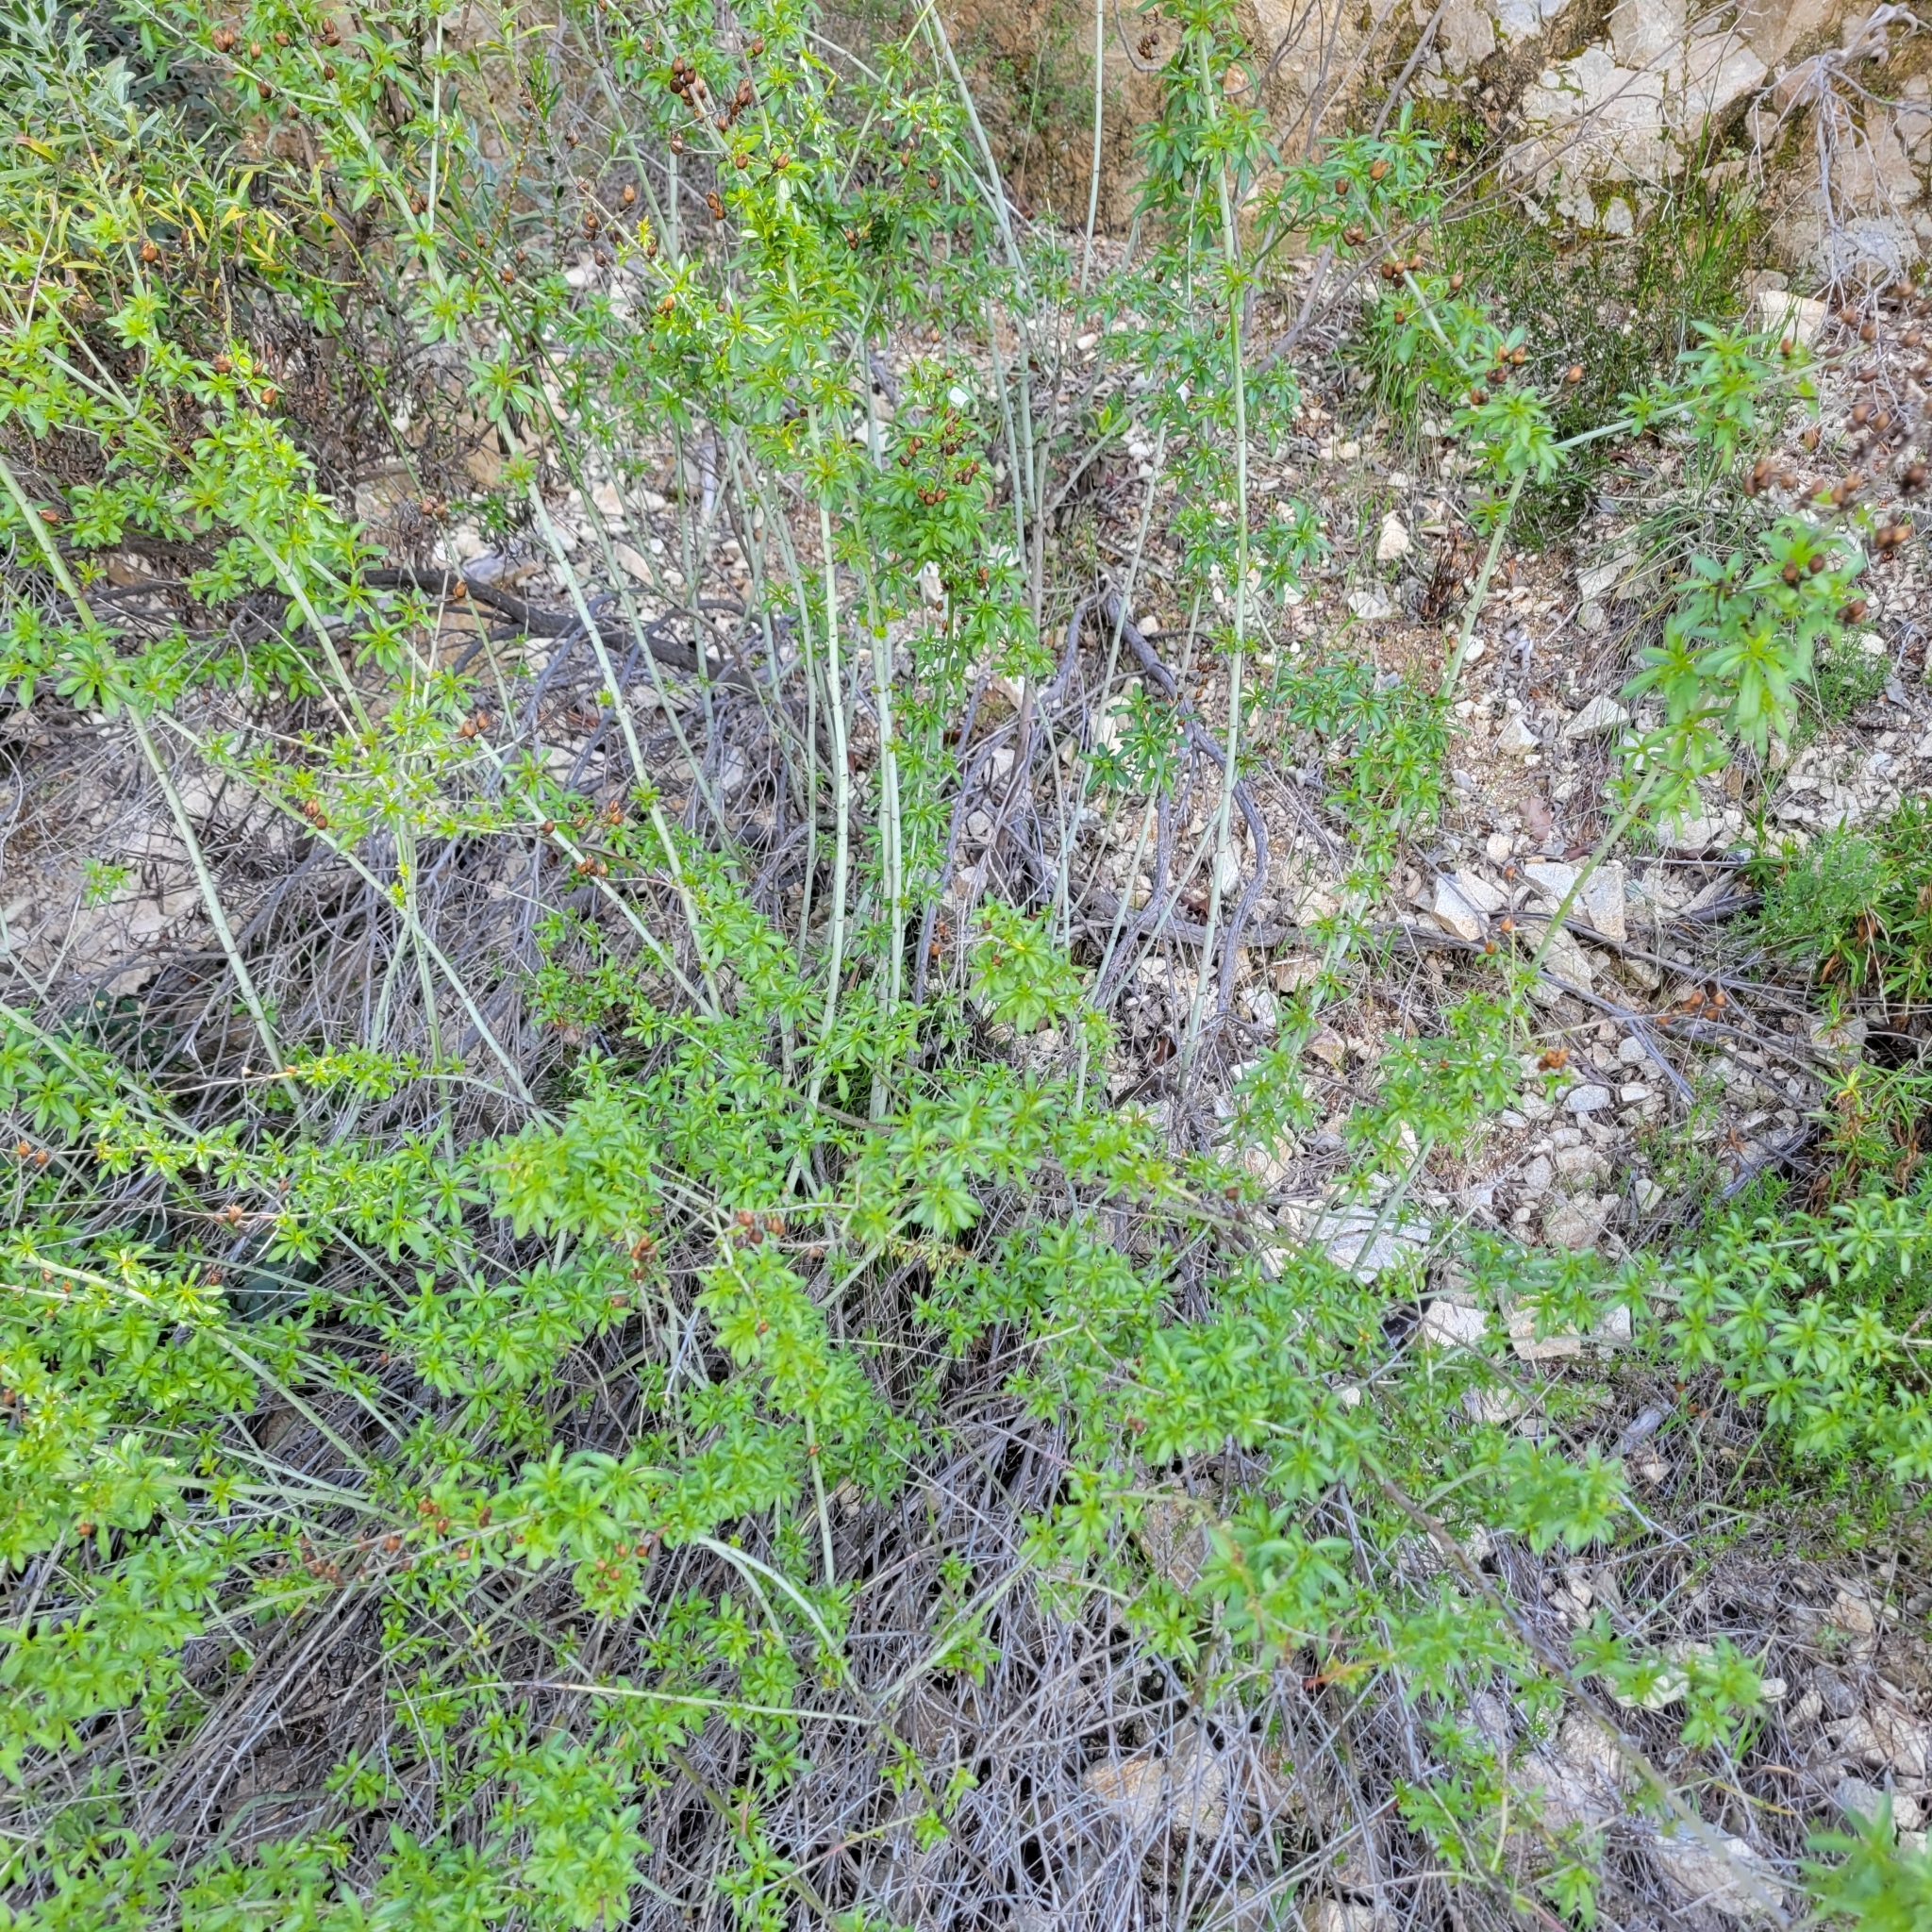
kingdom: Plantae
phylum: Tracheophyta
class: Magnoliopsida
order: Lamiales
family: Plantaginaceae
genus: Keckiella
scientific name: Keckiella ternata
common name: Scarlet keckiella
